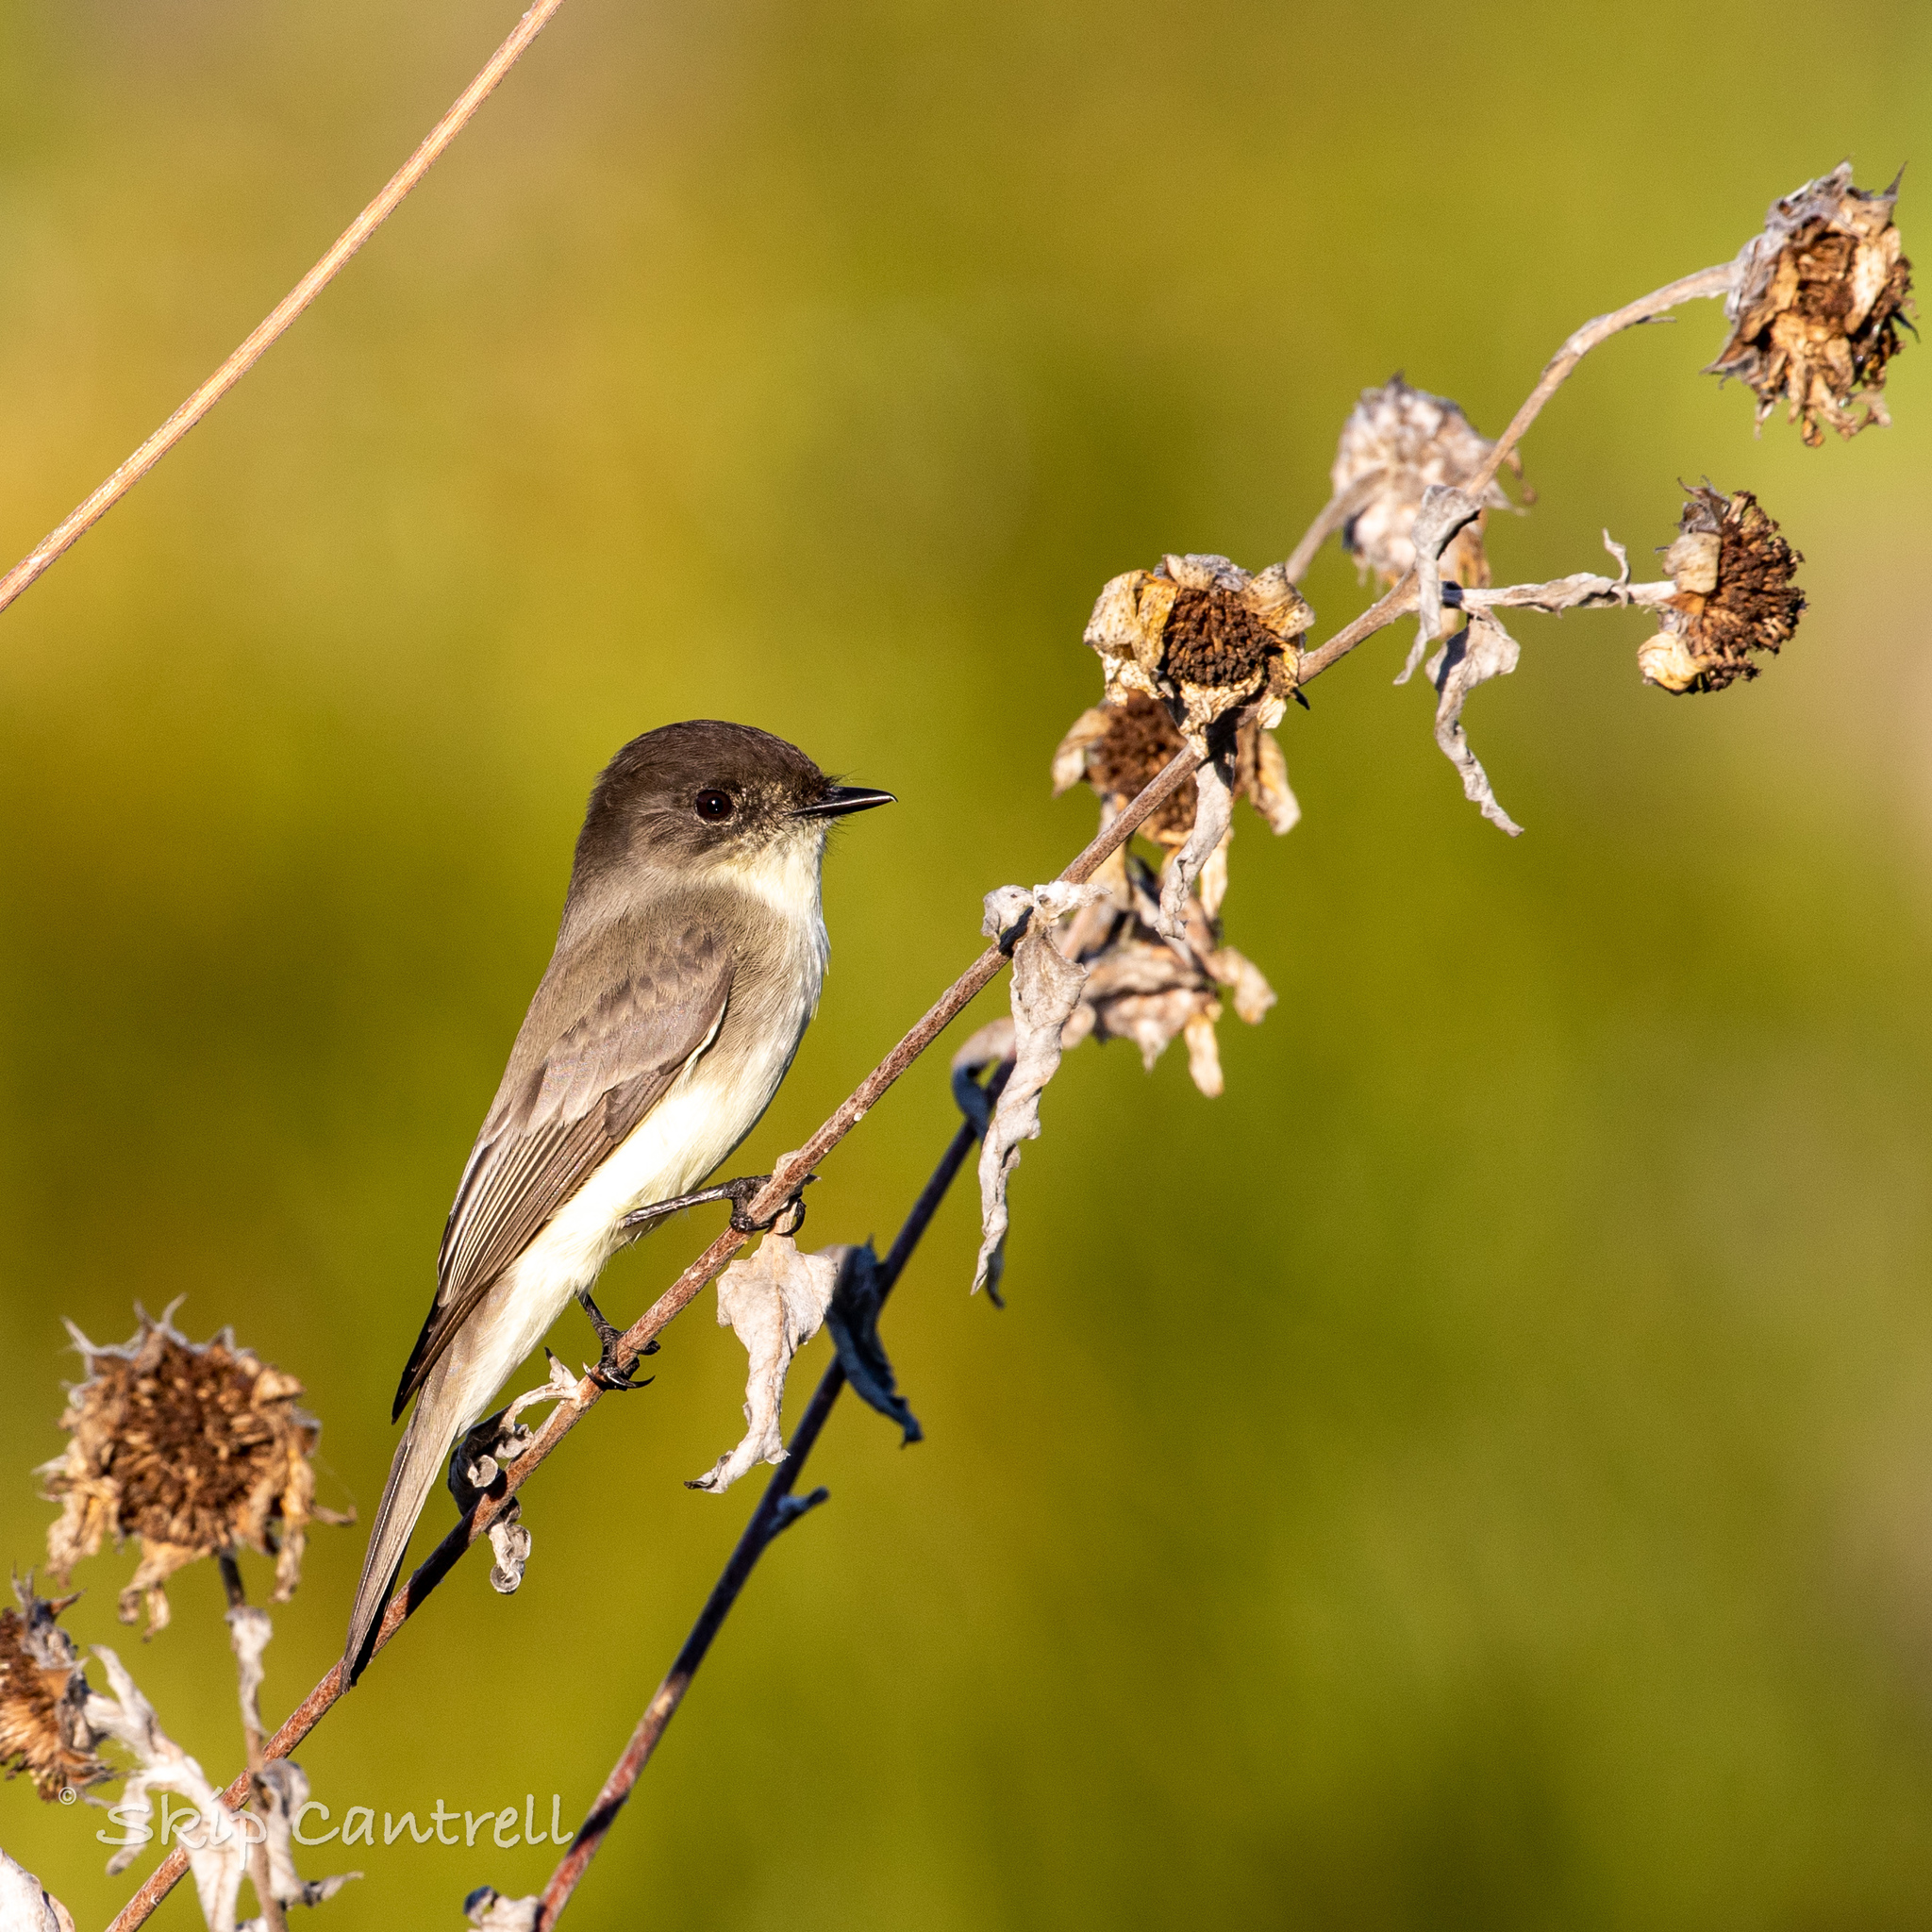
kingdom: Animalia
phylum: Chordata
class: Aves
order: Passeriformes
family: Tyrannidae
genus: Sayornis
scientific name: Sayornis phoebe
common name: Eastern phoebe
